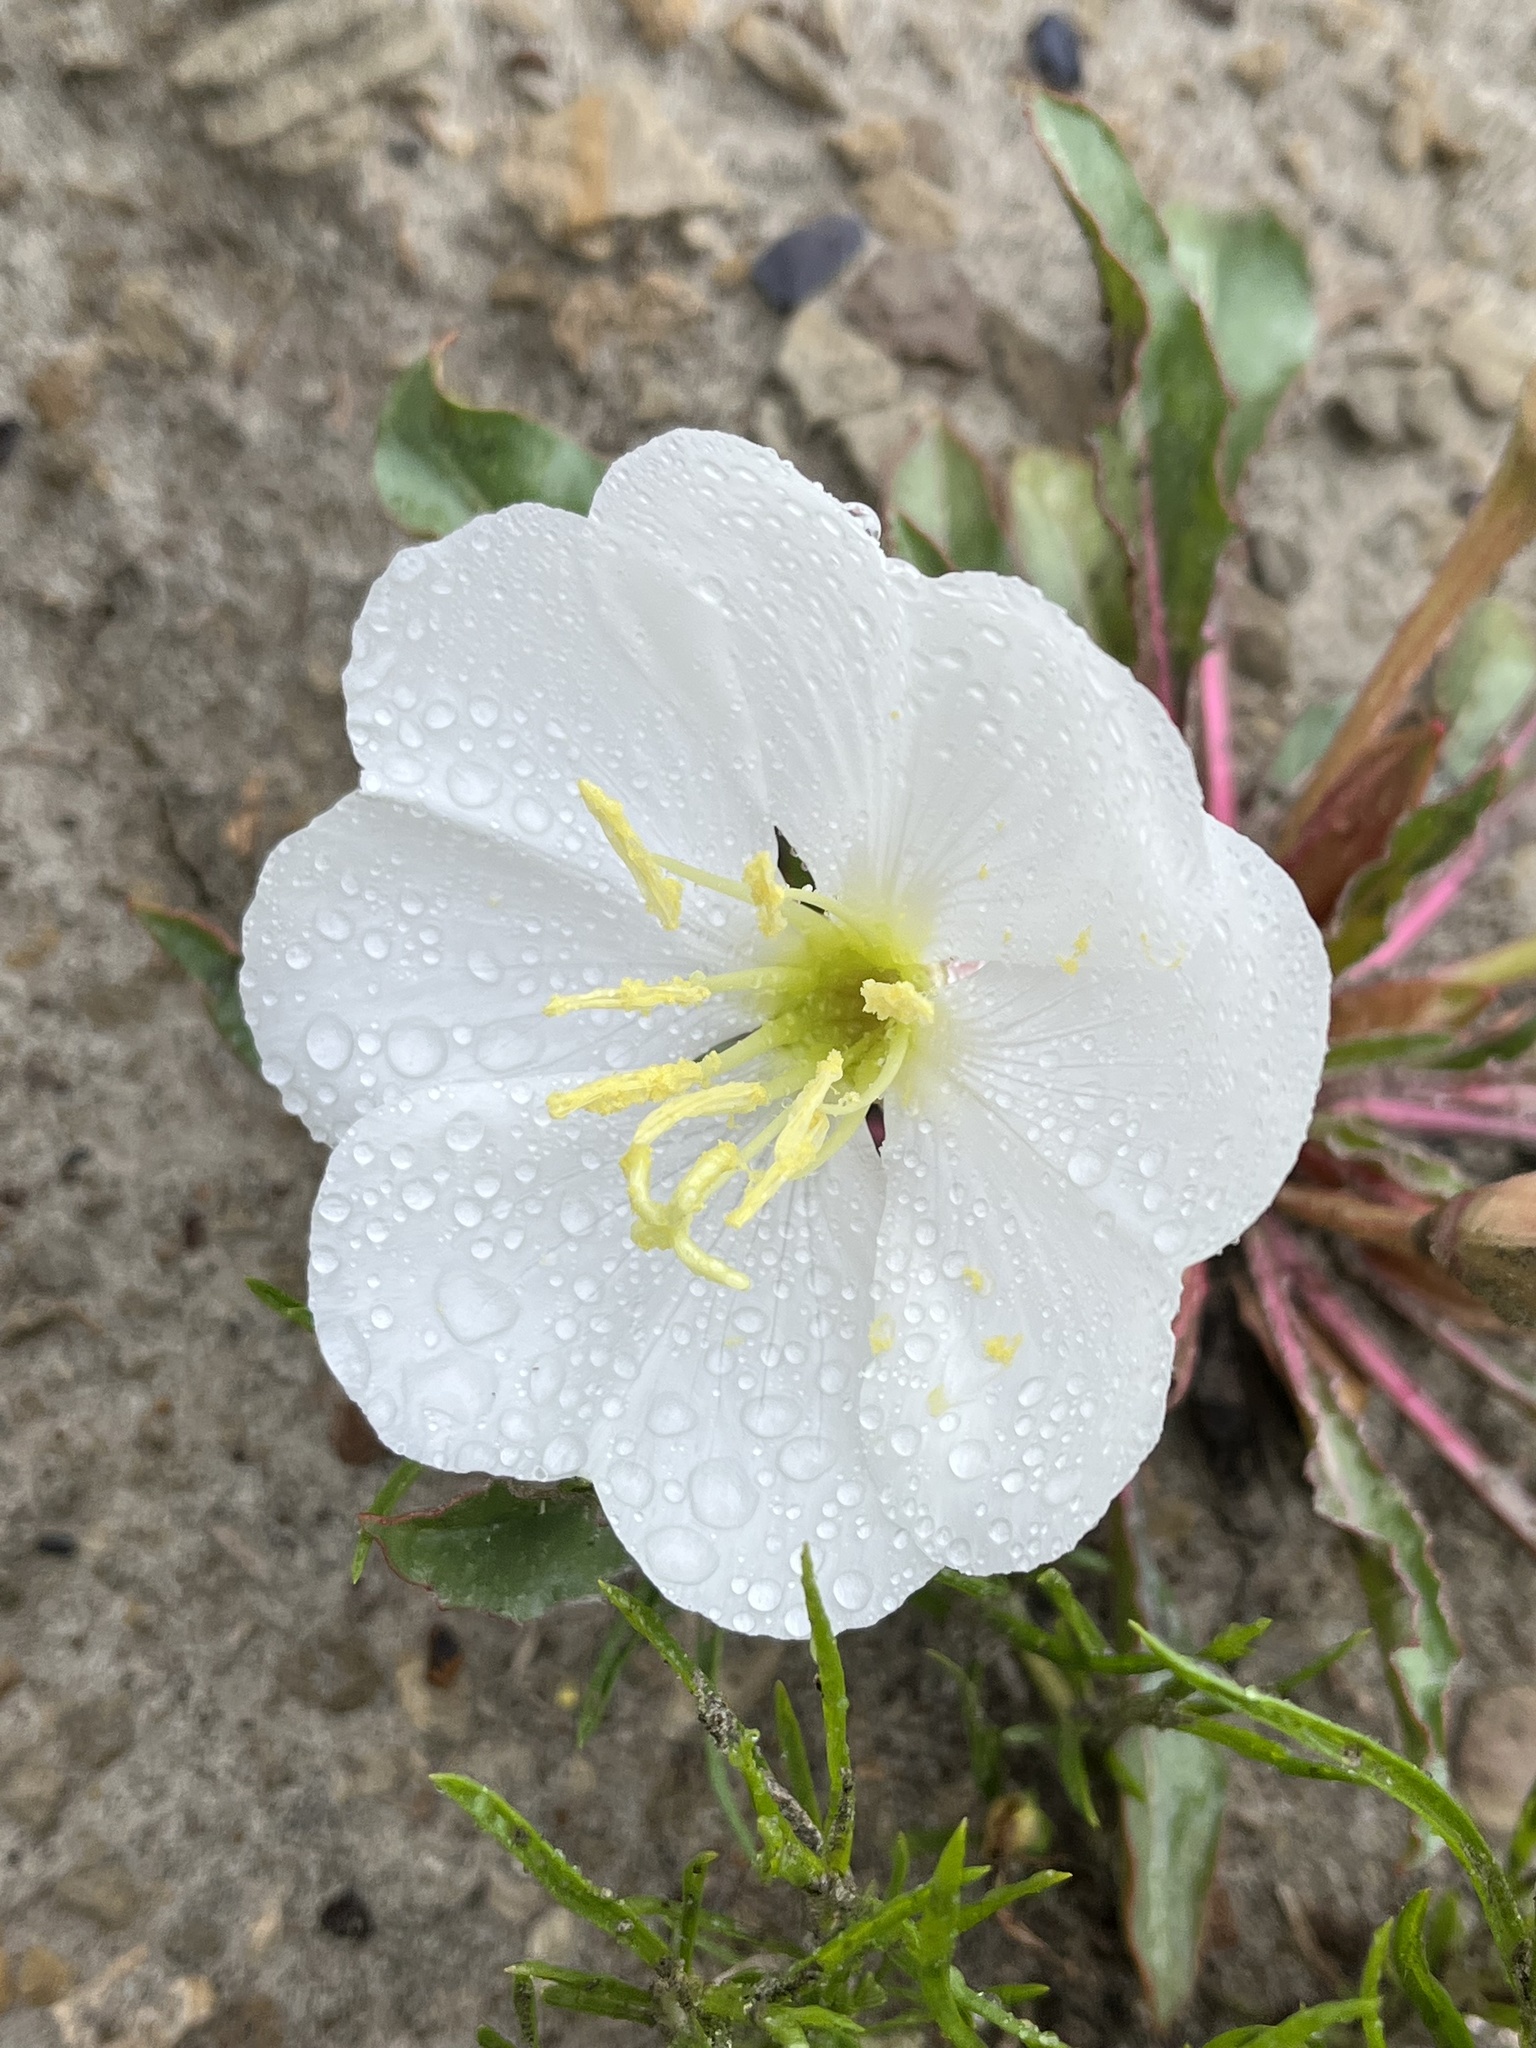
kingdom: Plantae
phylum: Tracheophyta
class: Magnoliopsida
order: Myrtales
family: Onagraceae
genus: Oenothera
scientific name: Oenothera cespitosa
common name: Tufted evening-primrose
